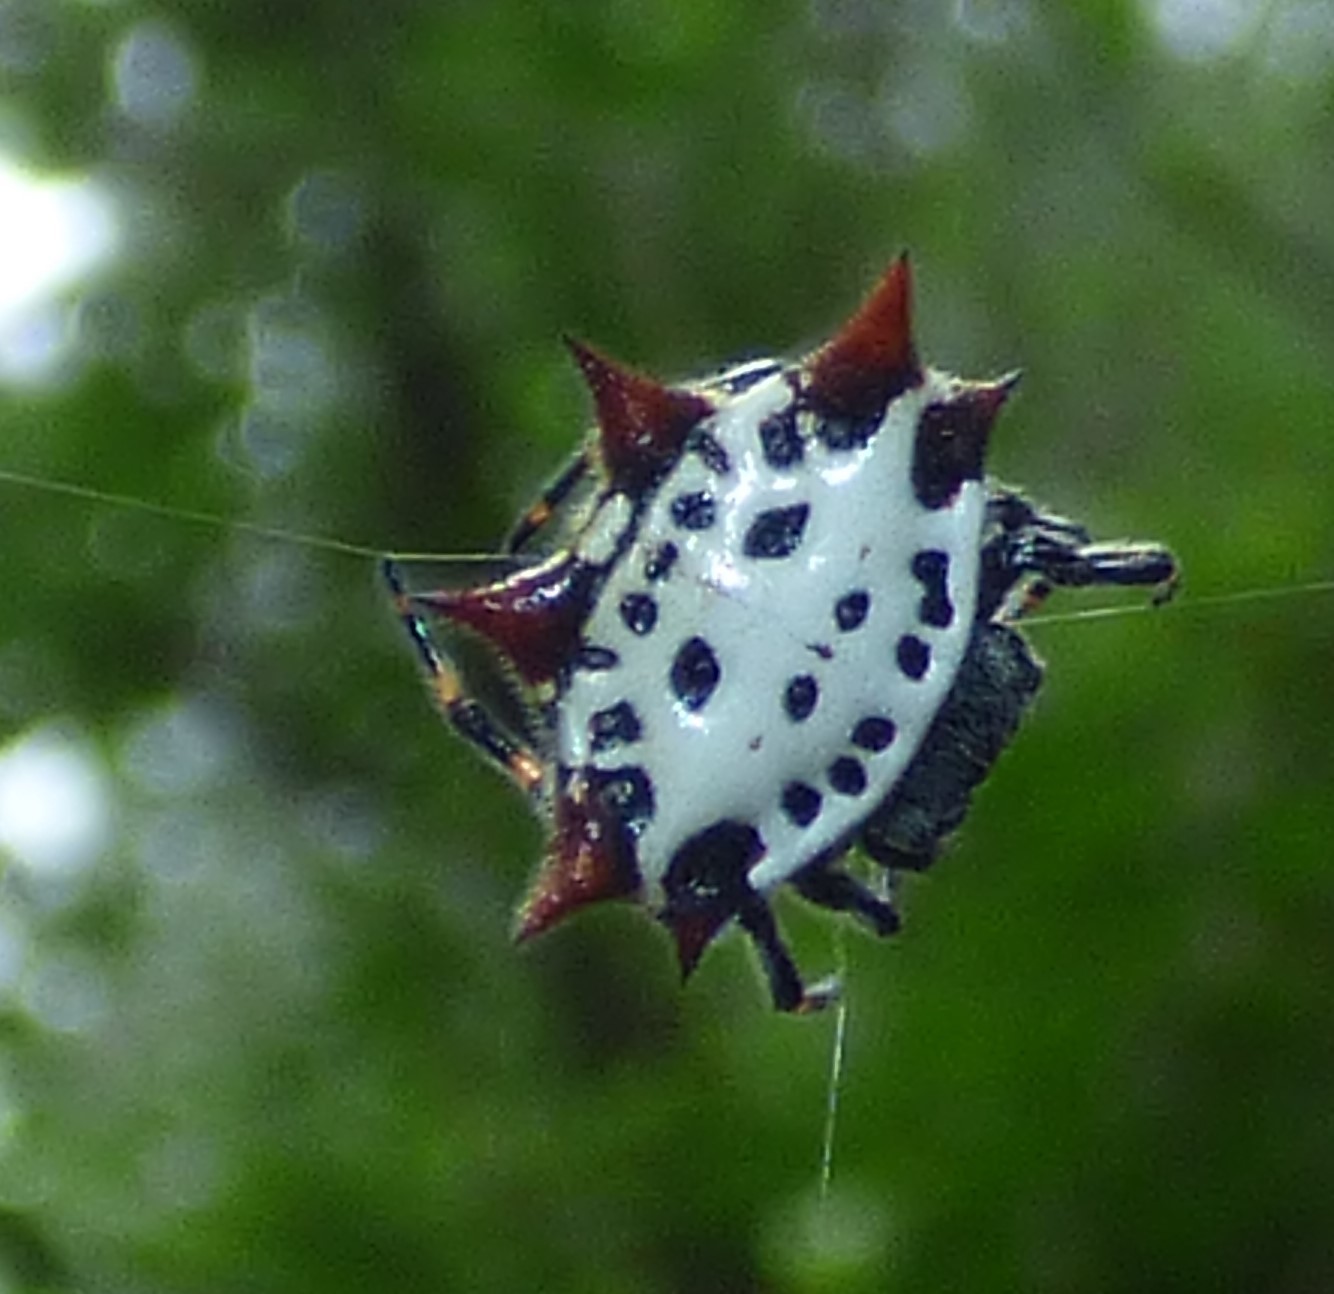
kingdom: Animalia
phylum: Arthropoda
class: Arachnida
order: Araneae
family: Araneidae
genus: Gasteracantha
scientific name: Gasteracantha cancriformis
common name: Orb weavers
